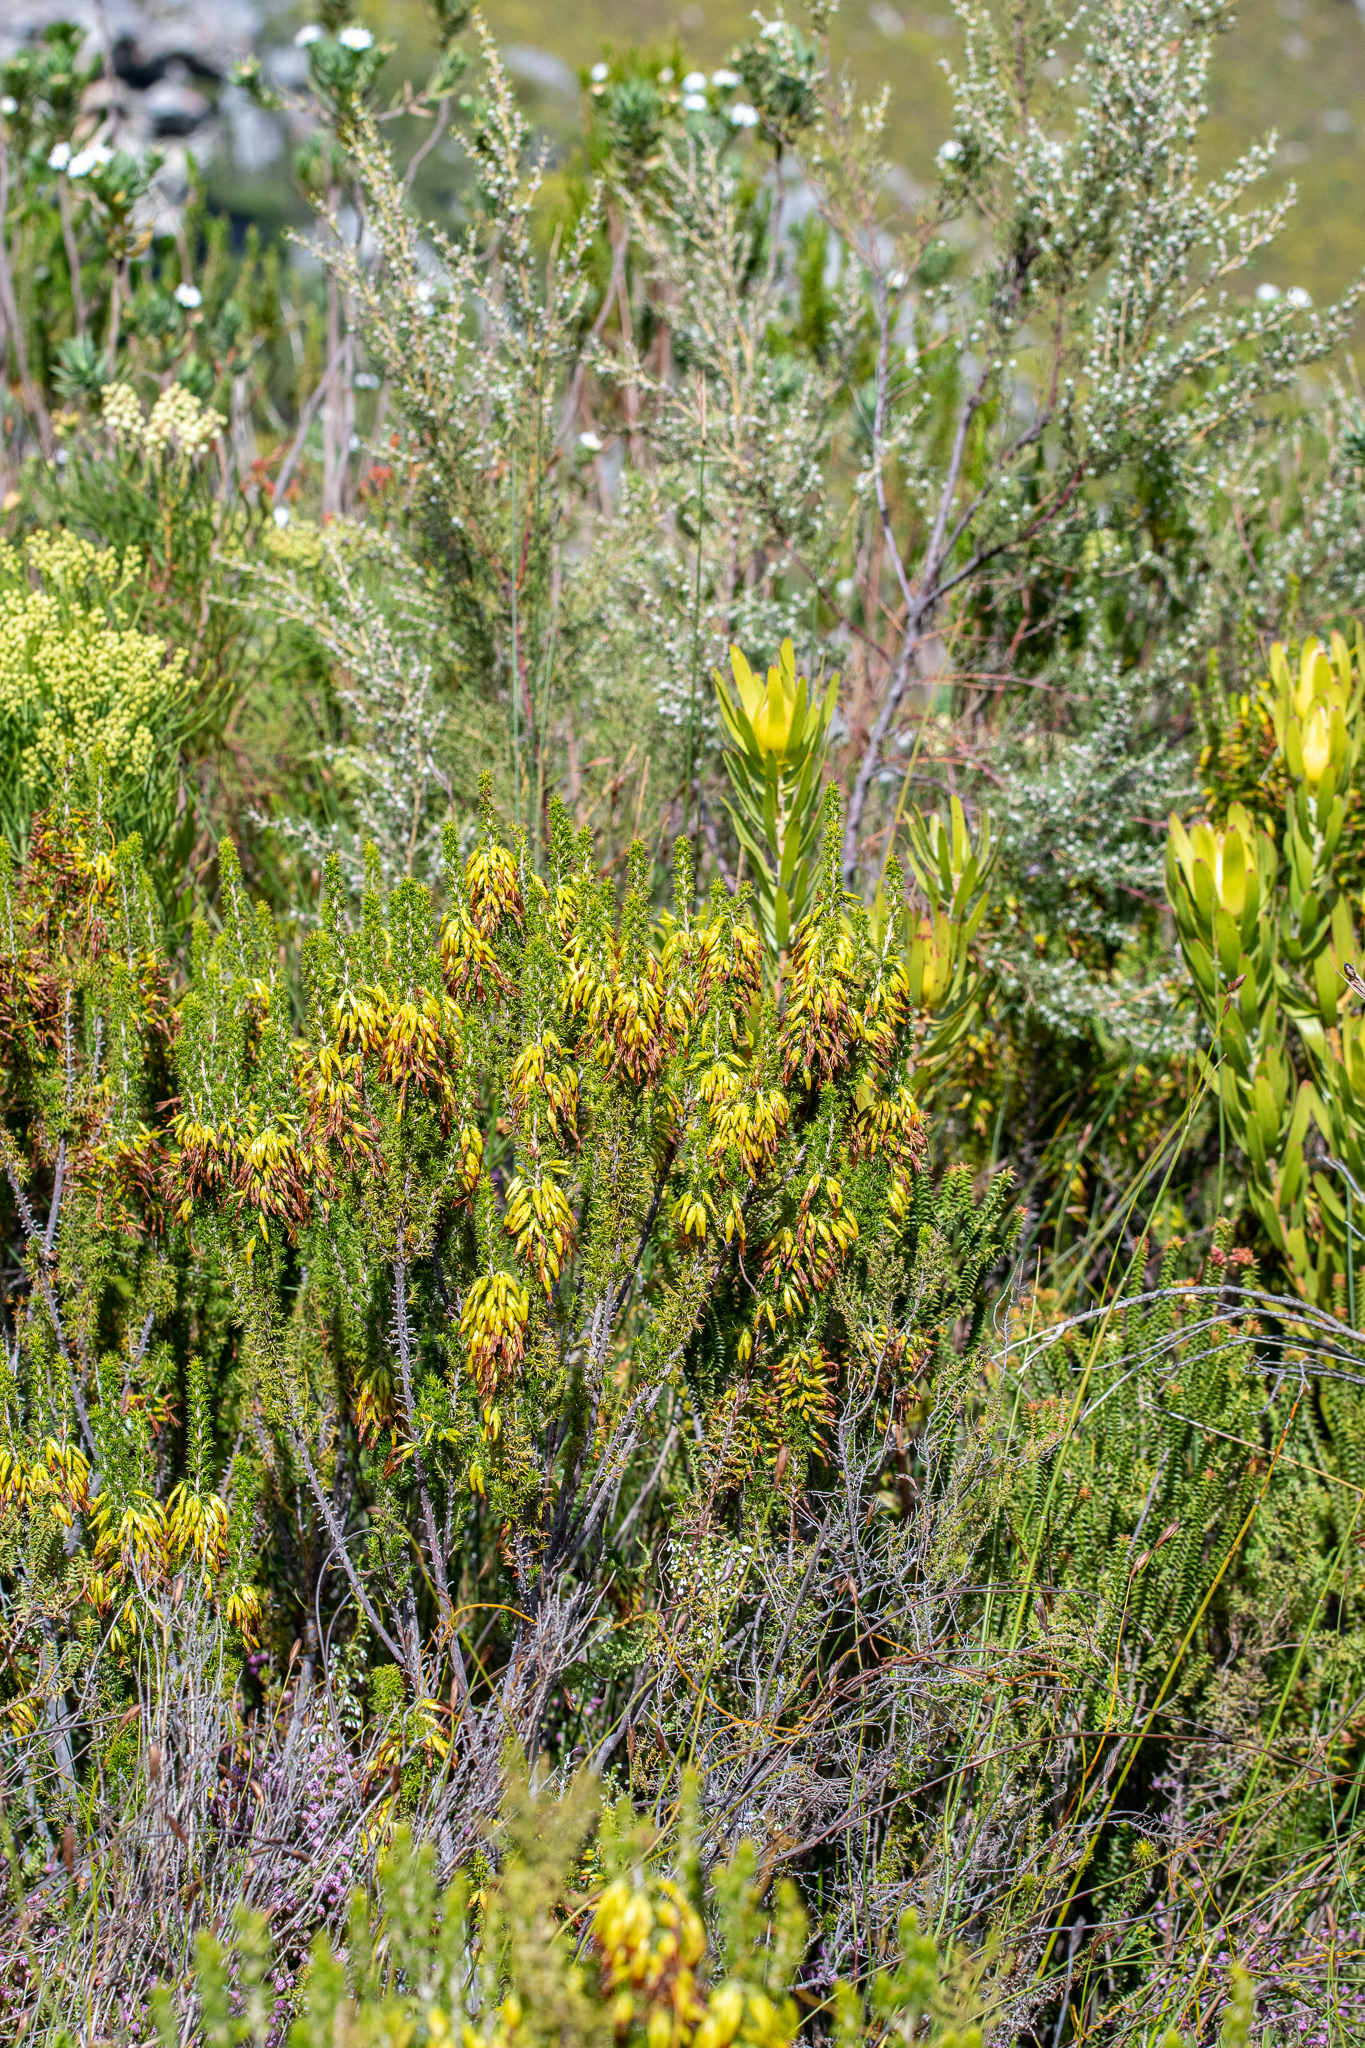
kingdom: Plantae
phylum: Tracheophyta
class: Magnoliopsida
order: Ericales
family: Ericaceae
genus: Erica
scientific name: Erica coccinea
